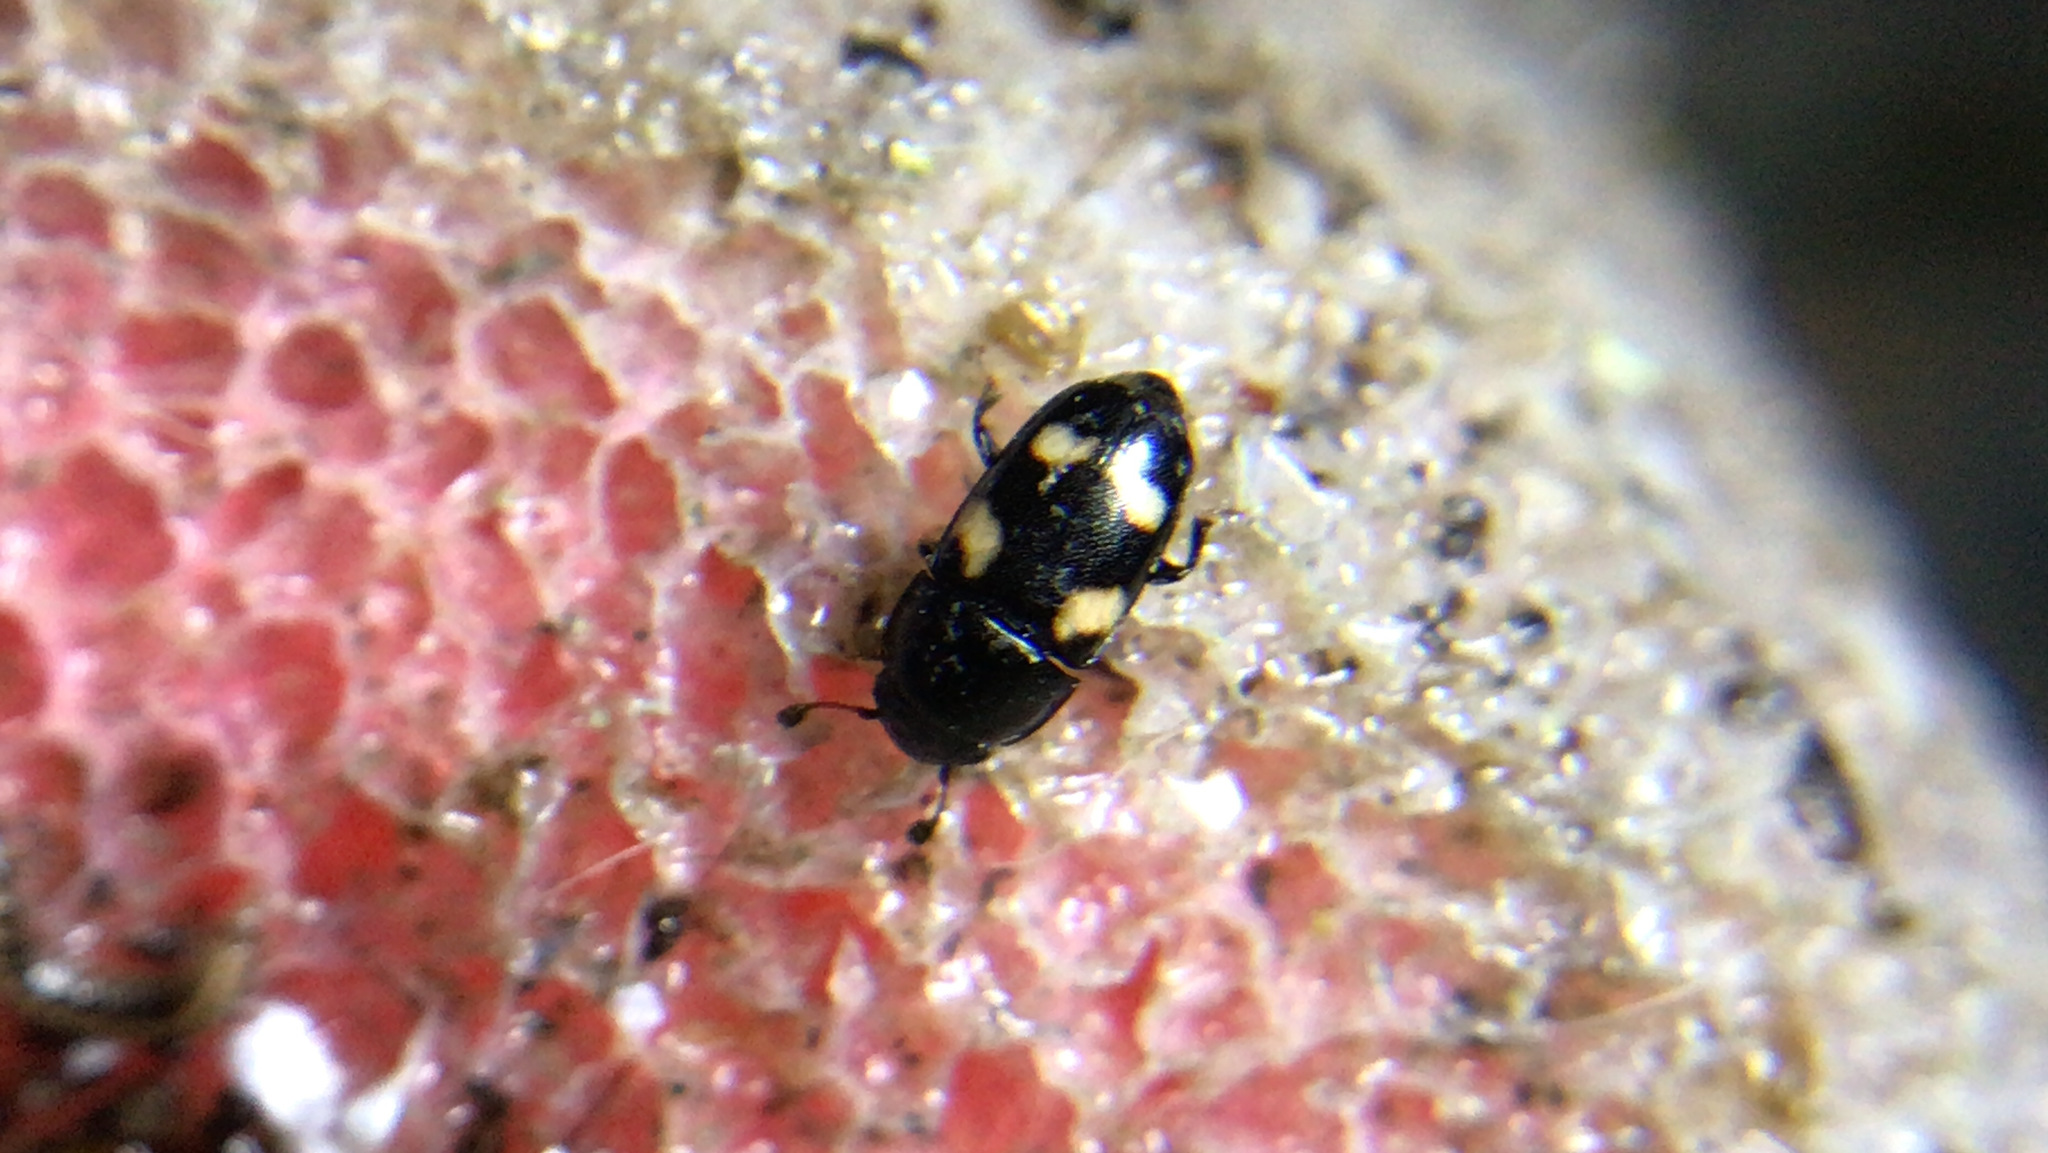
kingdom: Animalia
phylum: Arthropoda
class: Insecta
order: Coleoptera
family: Nitidulidae
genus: Glischrochilus
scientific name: Glischrochilus quadrisignatus
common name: Picnic beetle
